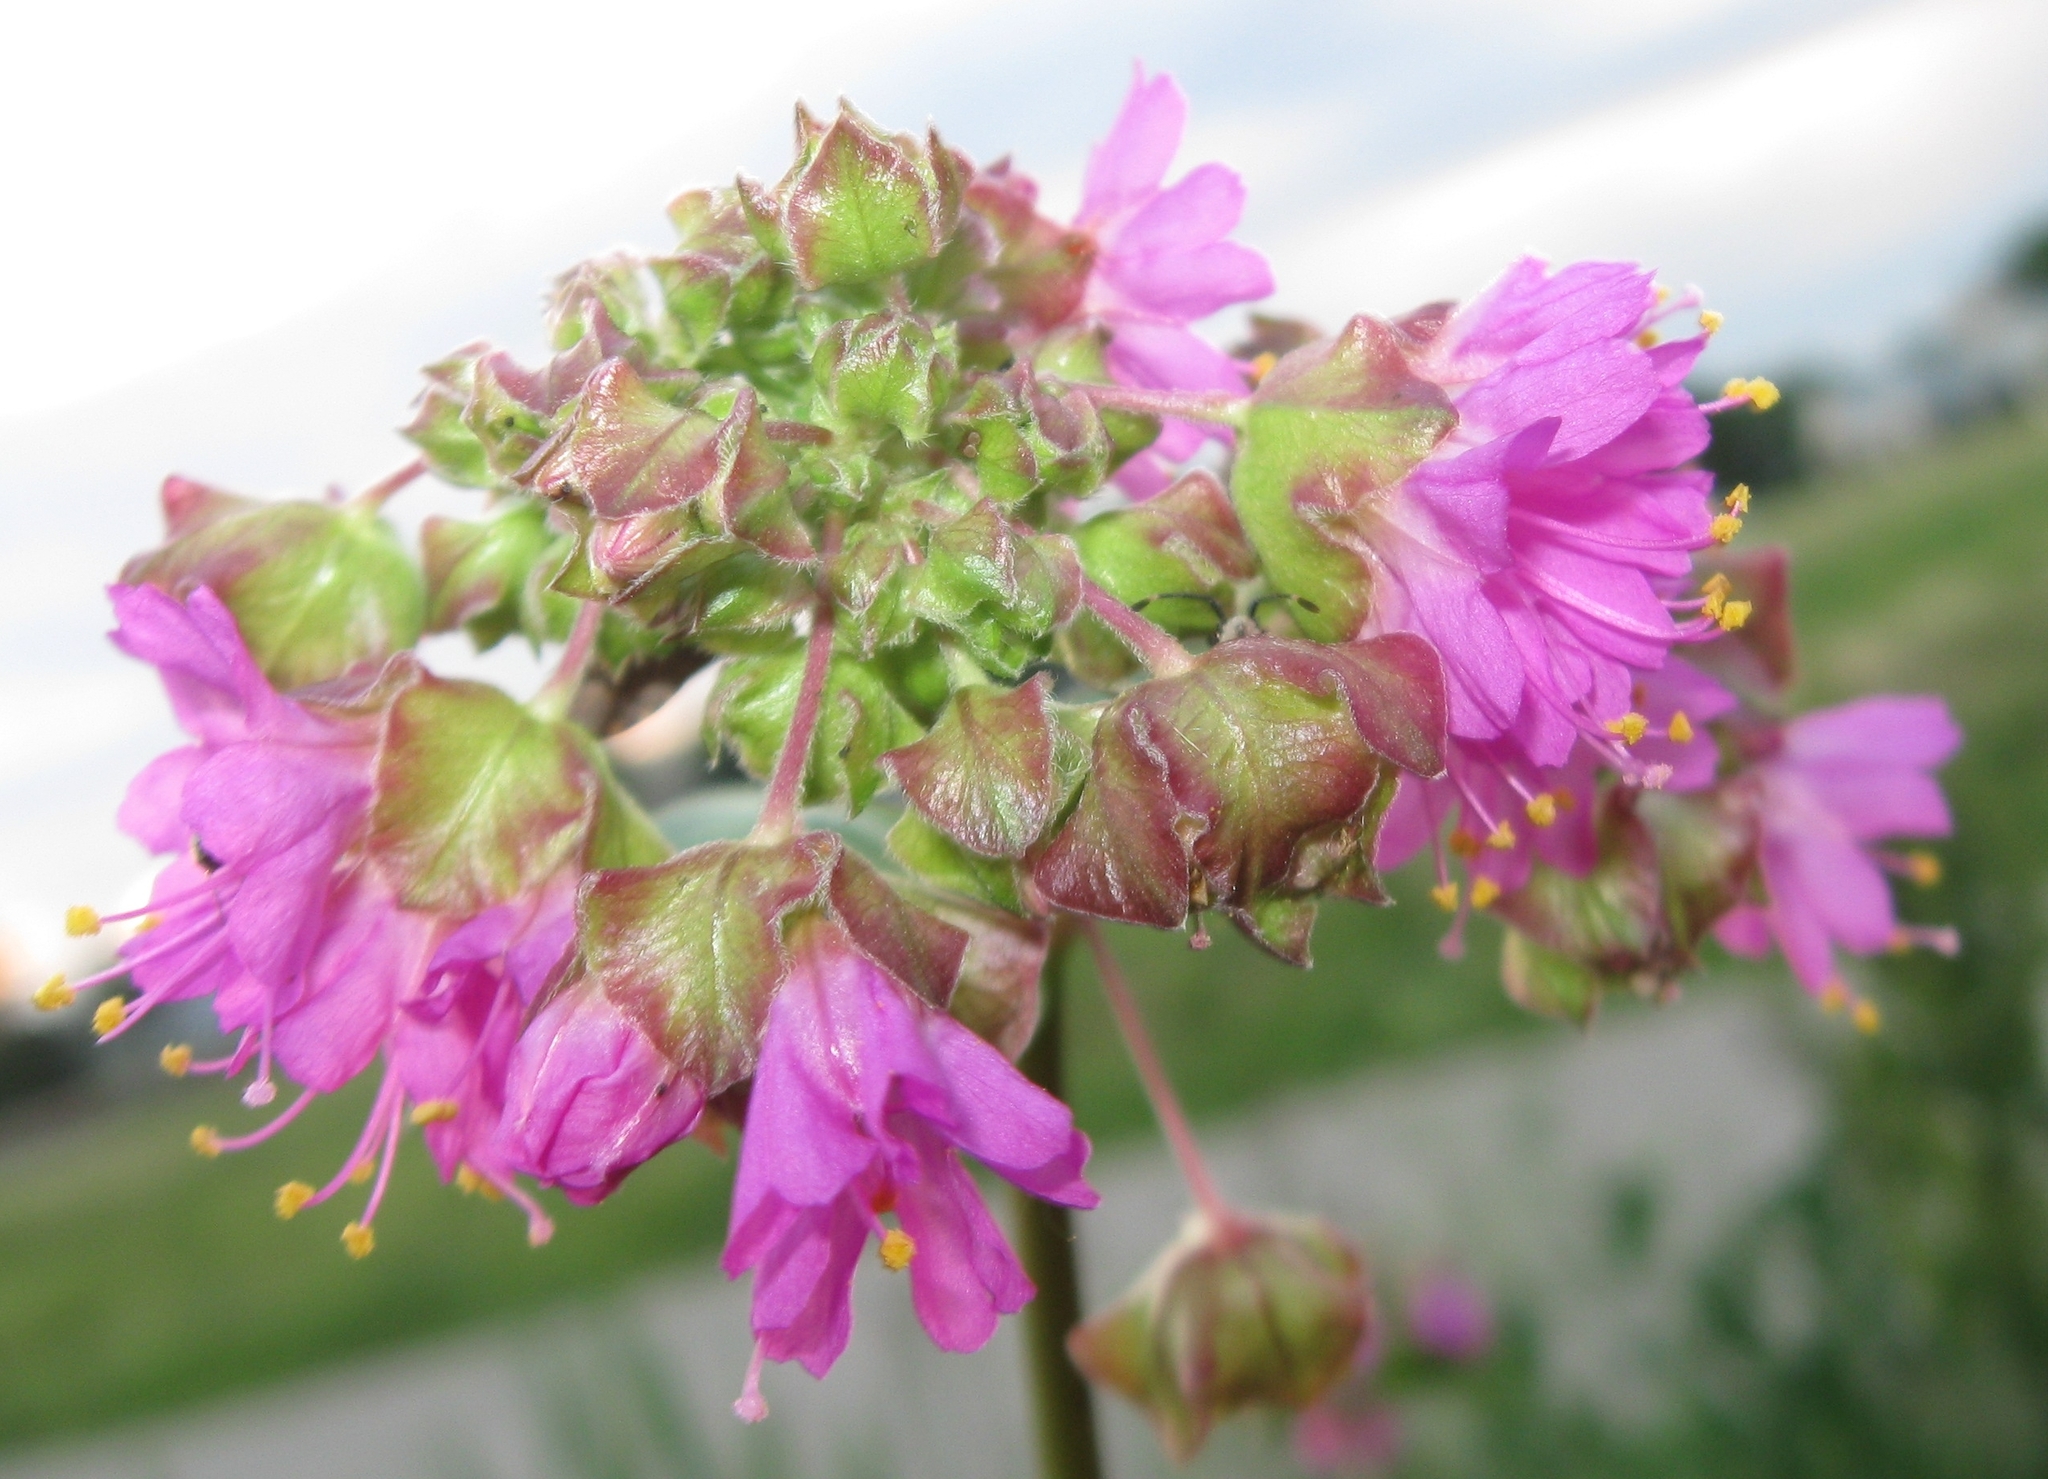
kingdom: Plantae
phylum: Tracheophyta
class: Magnoliopsida
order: Caryophyllales
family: Nyctaginaceae
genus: Mirabilis
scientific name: Mirabilis nyctaginea
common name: Umbrella wort
